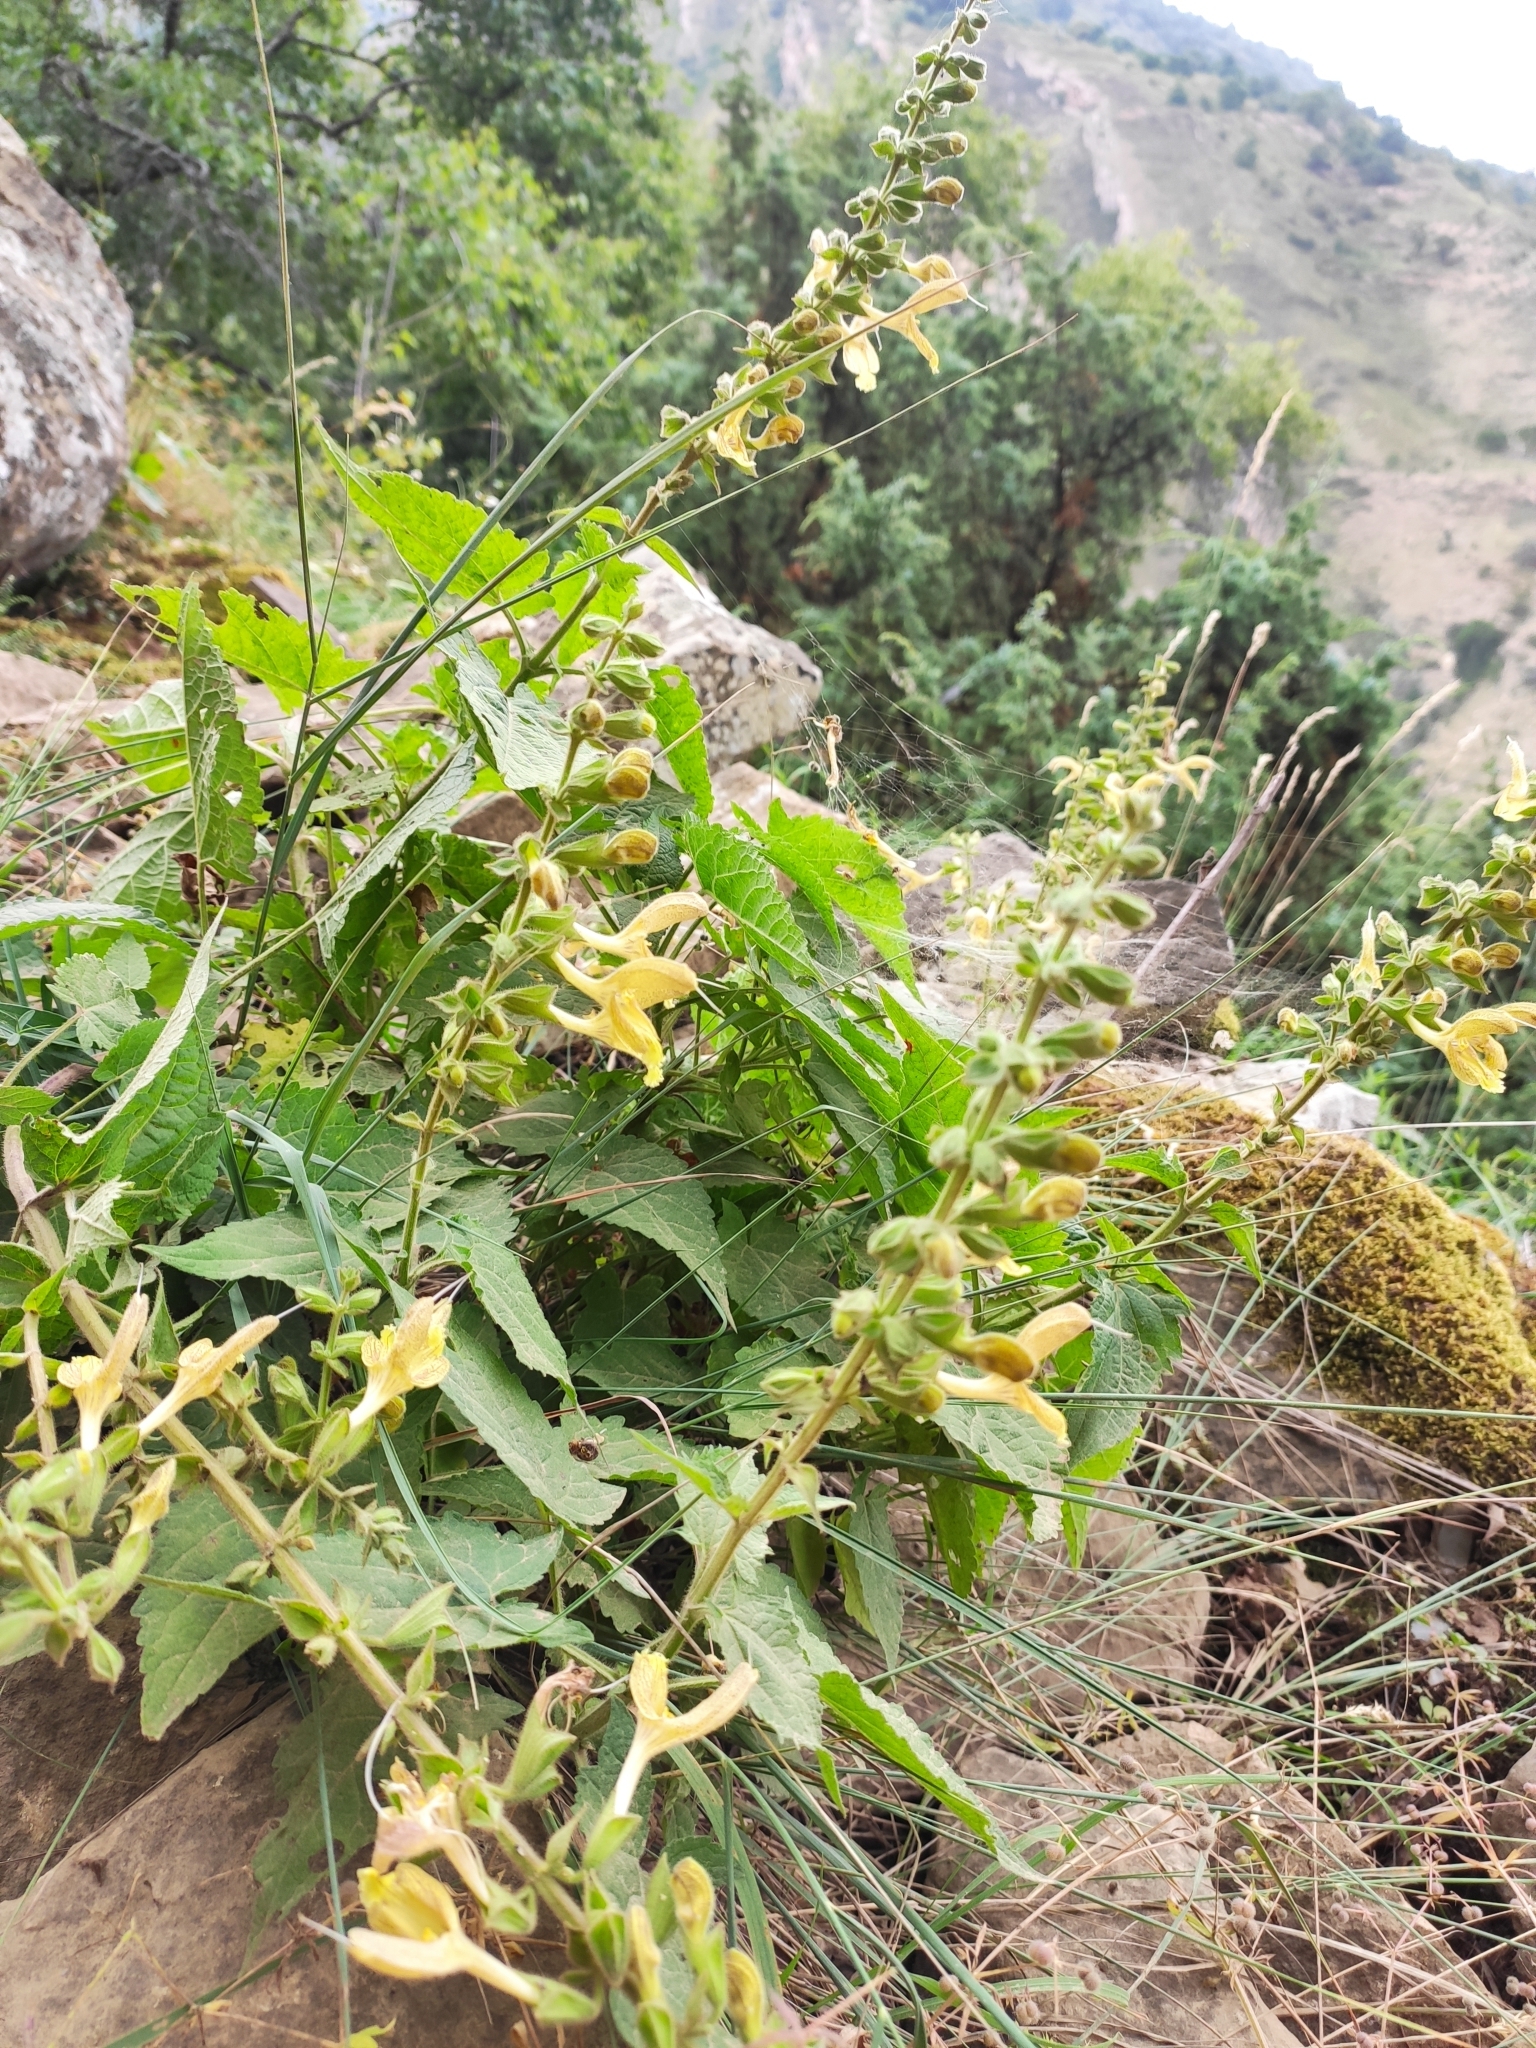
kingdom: Plantae
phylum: Tracheophyta
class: Magnoliopsida
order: Lamiales
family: Lamiaceae
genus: Salvia
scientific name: Salvia glutinosa
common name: Sticky clary
